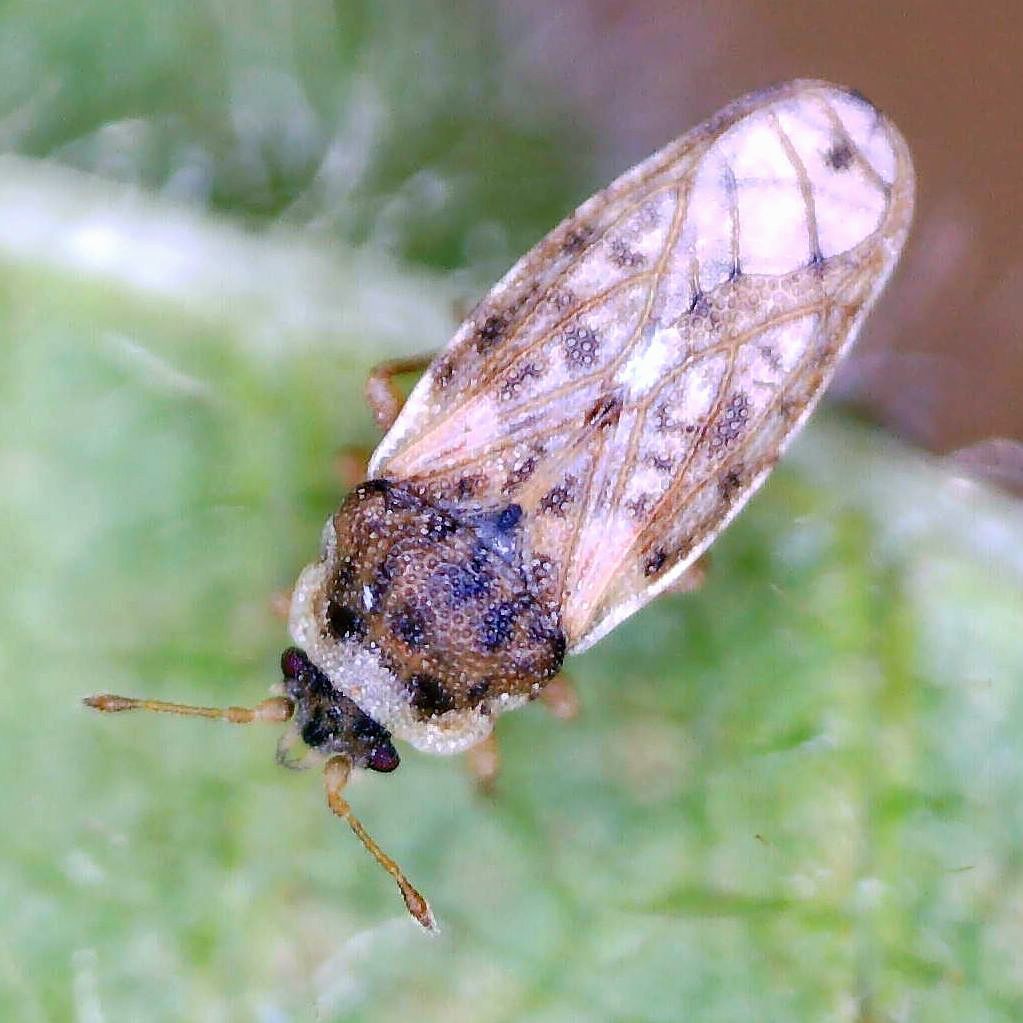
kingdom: Animalia
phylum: Arthropoda
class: Insecta
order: Hemiptera
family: Piesmatidae
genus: Piesma
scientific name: Piesma maculata
